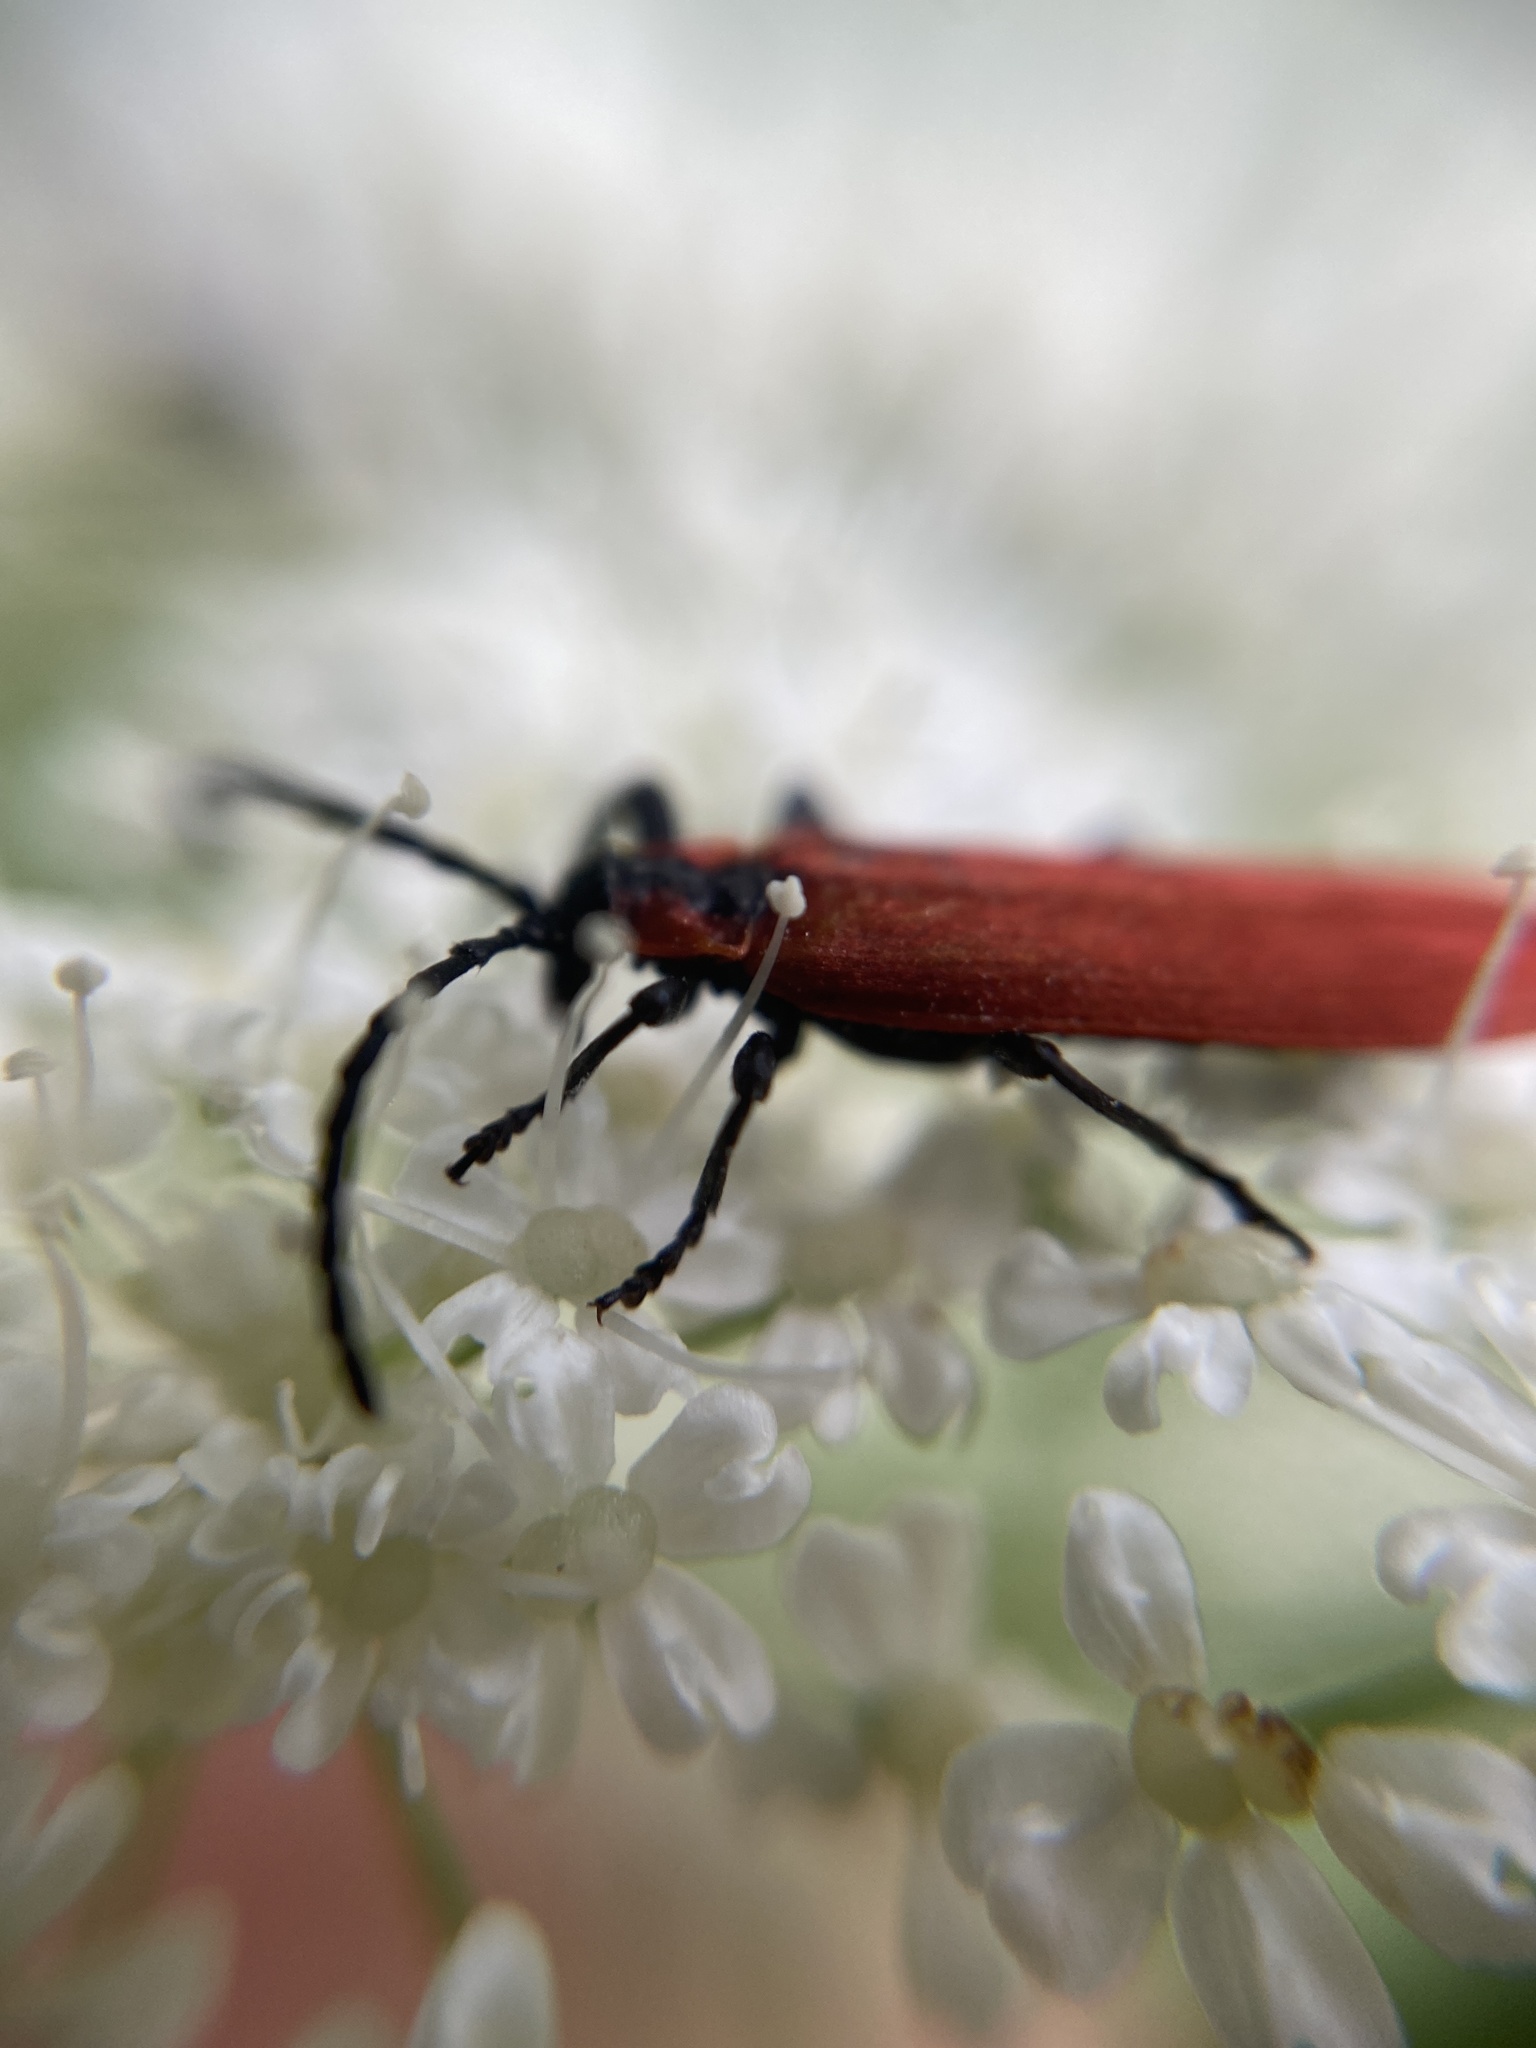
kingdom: Animalia
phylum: Arthropoda
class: Insecta
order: Coleoptera
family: Lycidae
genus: Lygistopterus
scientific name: Lygistopterus sanguineus
